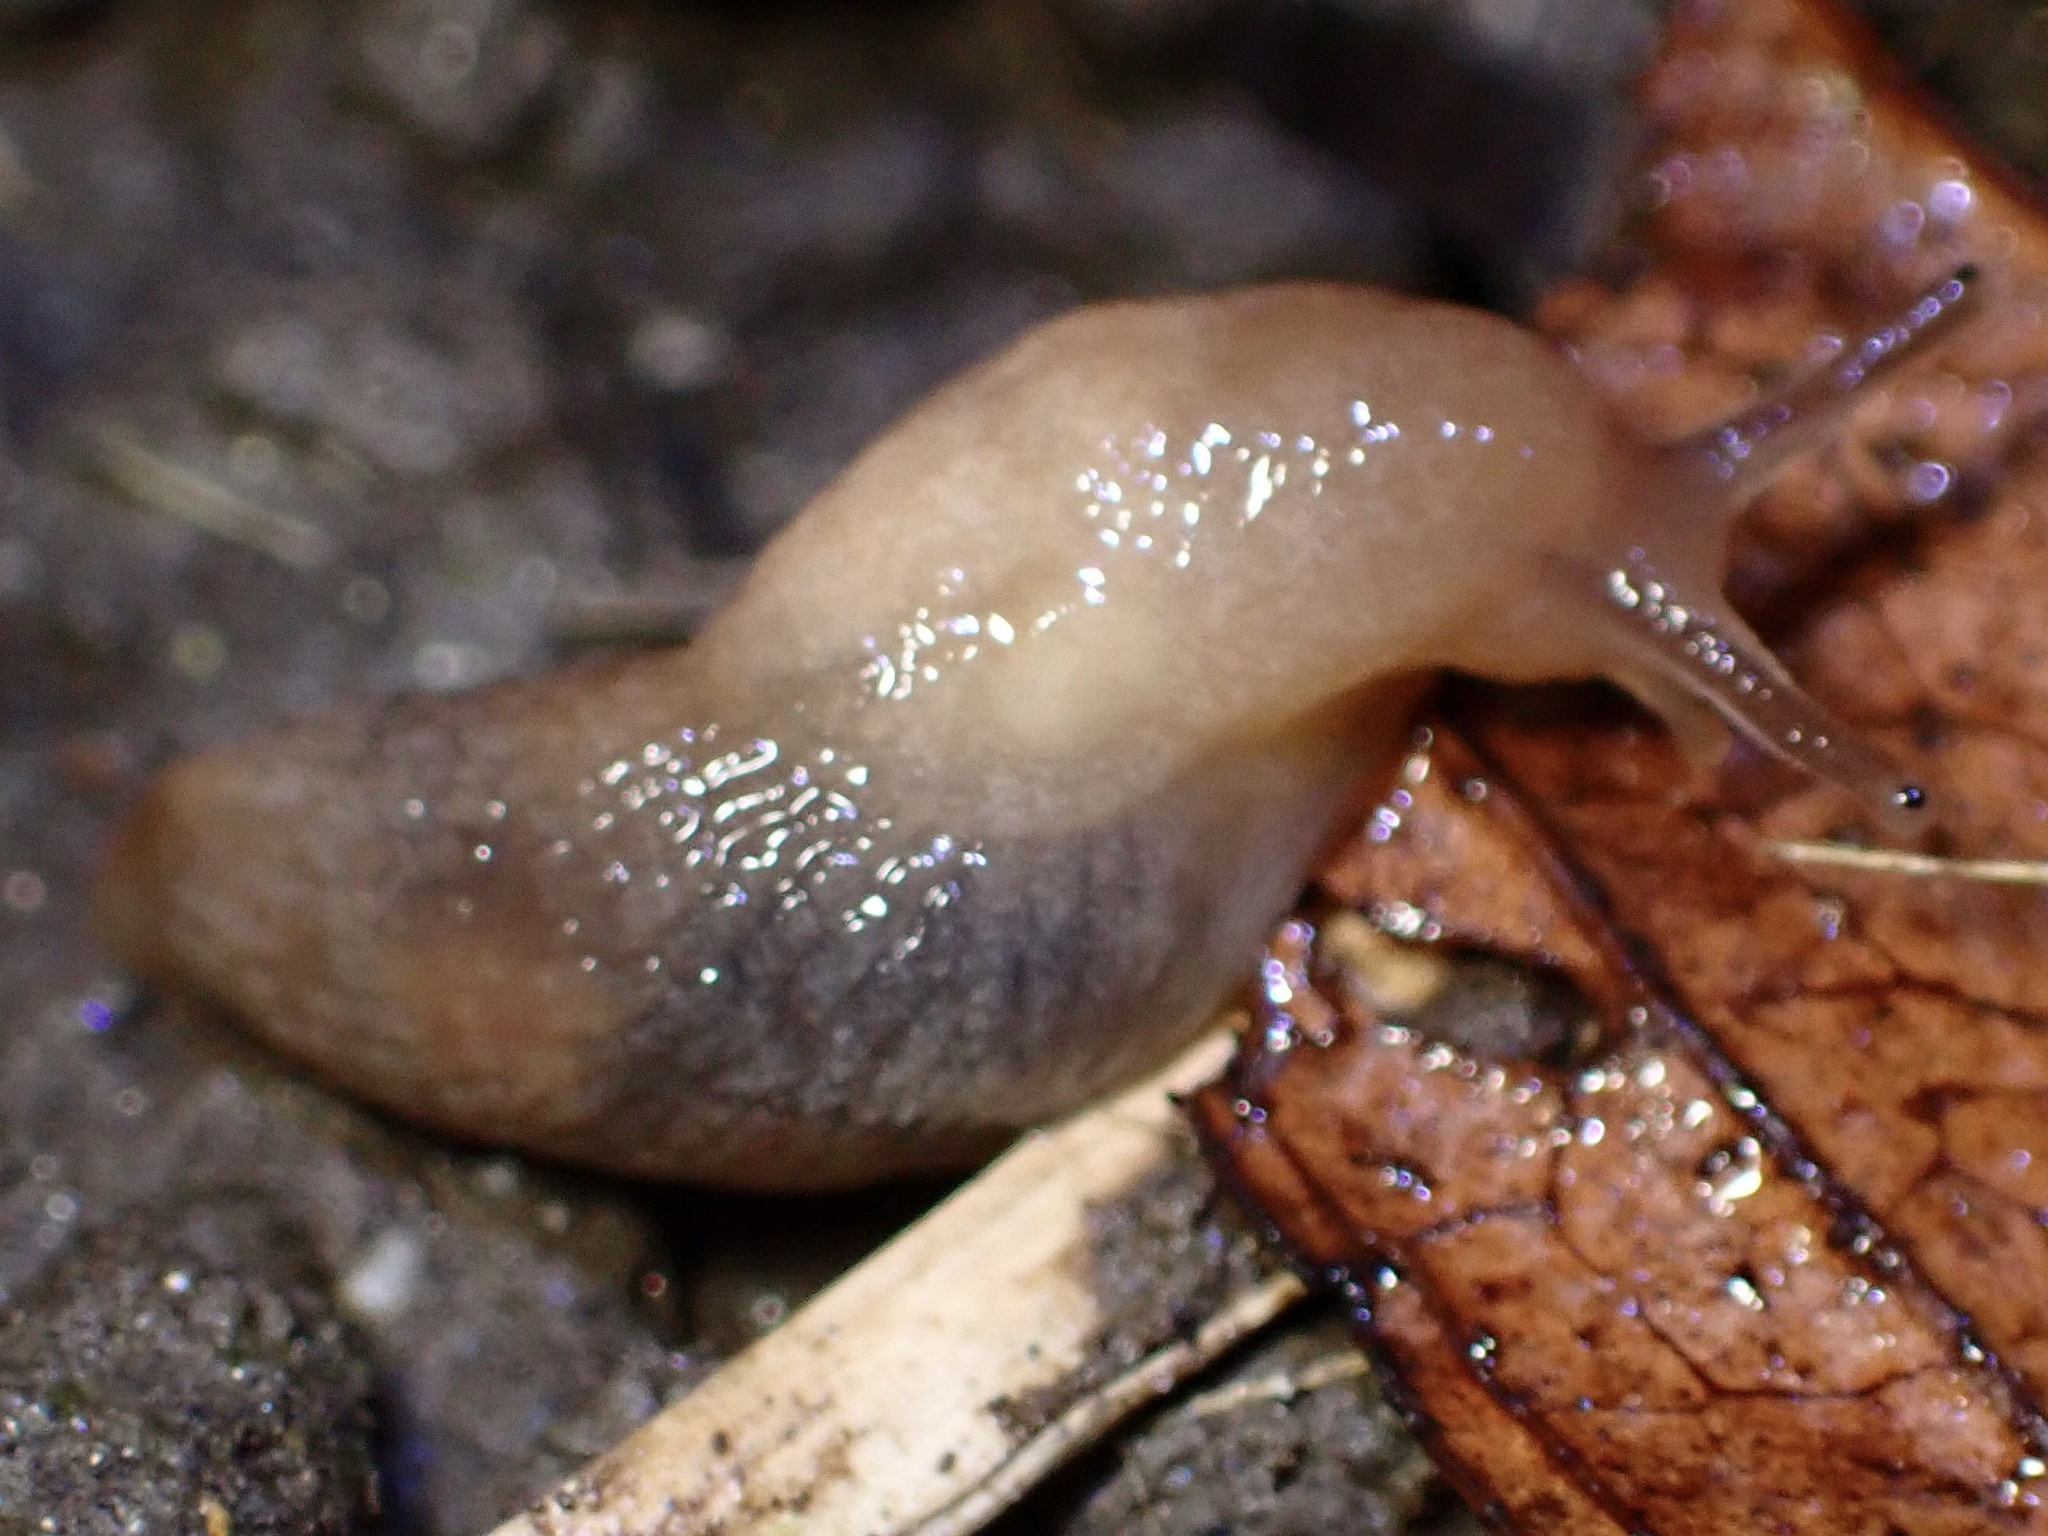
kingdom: Animalia
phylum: Mollusca
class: Gastropoda
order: Stylommatophora
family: Agriolimacidae
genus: Deroceras
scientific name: Deroceras invadens
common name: Caruana's slug
